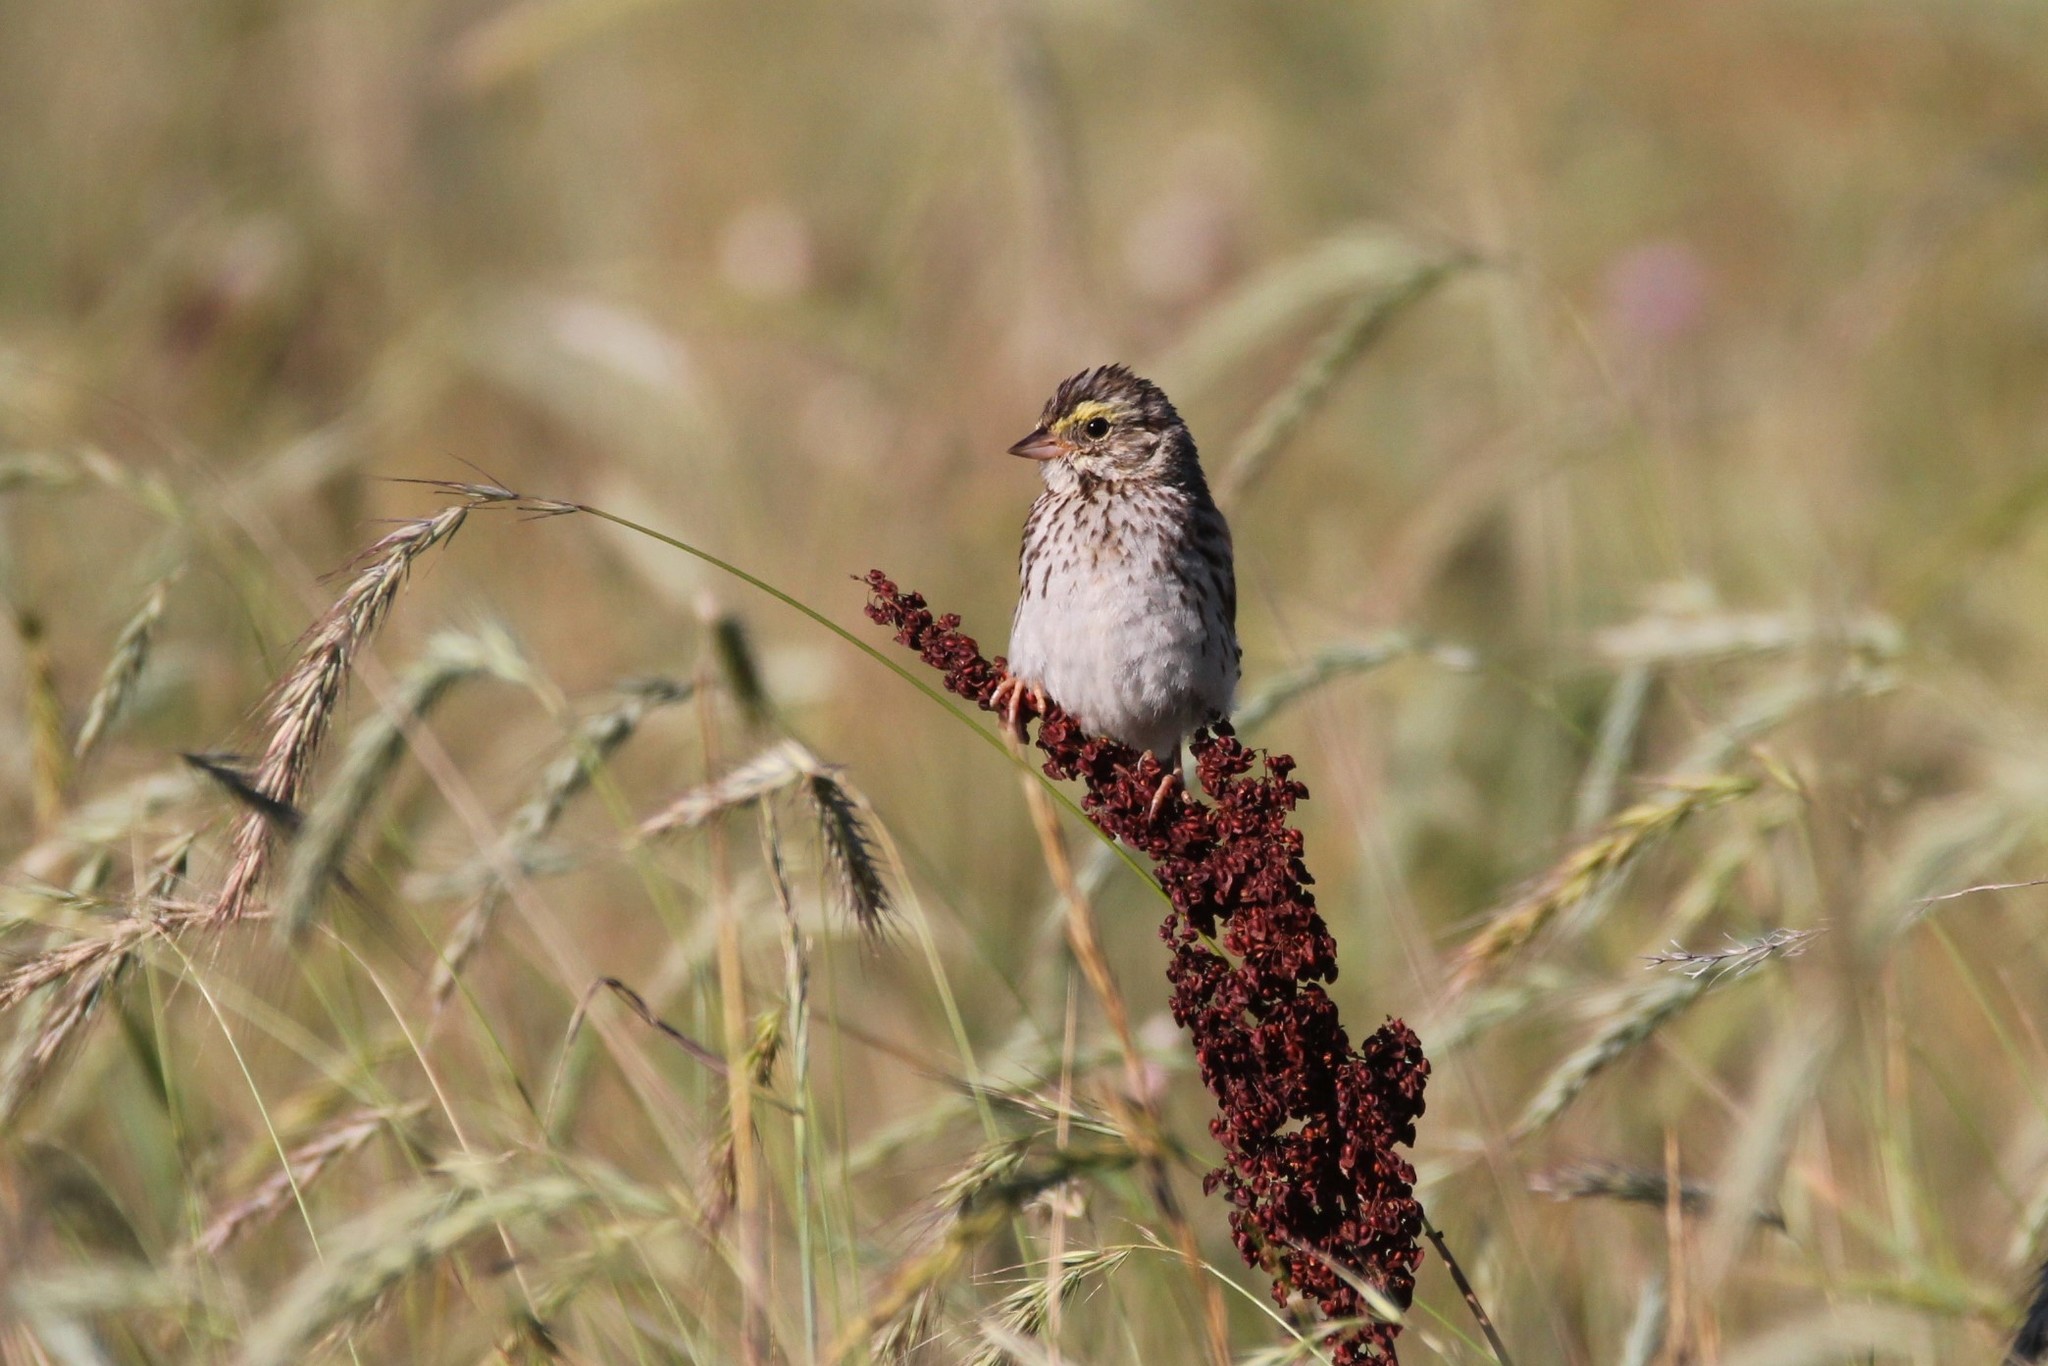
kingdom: Animalia
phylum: Chordata
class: Aves
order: Passeriformes
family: Passerellidae
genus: Passerculus
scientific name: Passerculus sandwichensis
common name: Savannah sparrow
